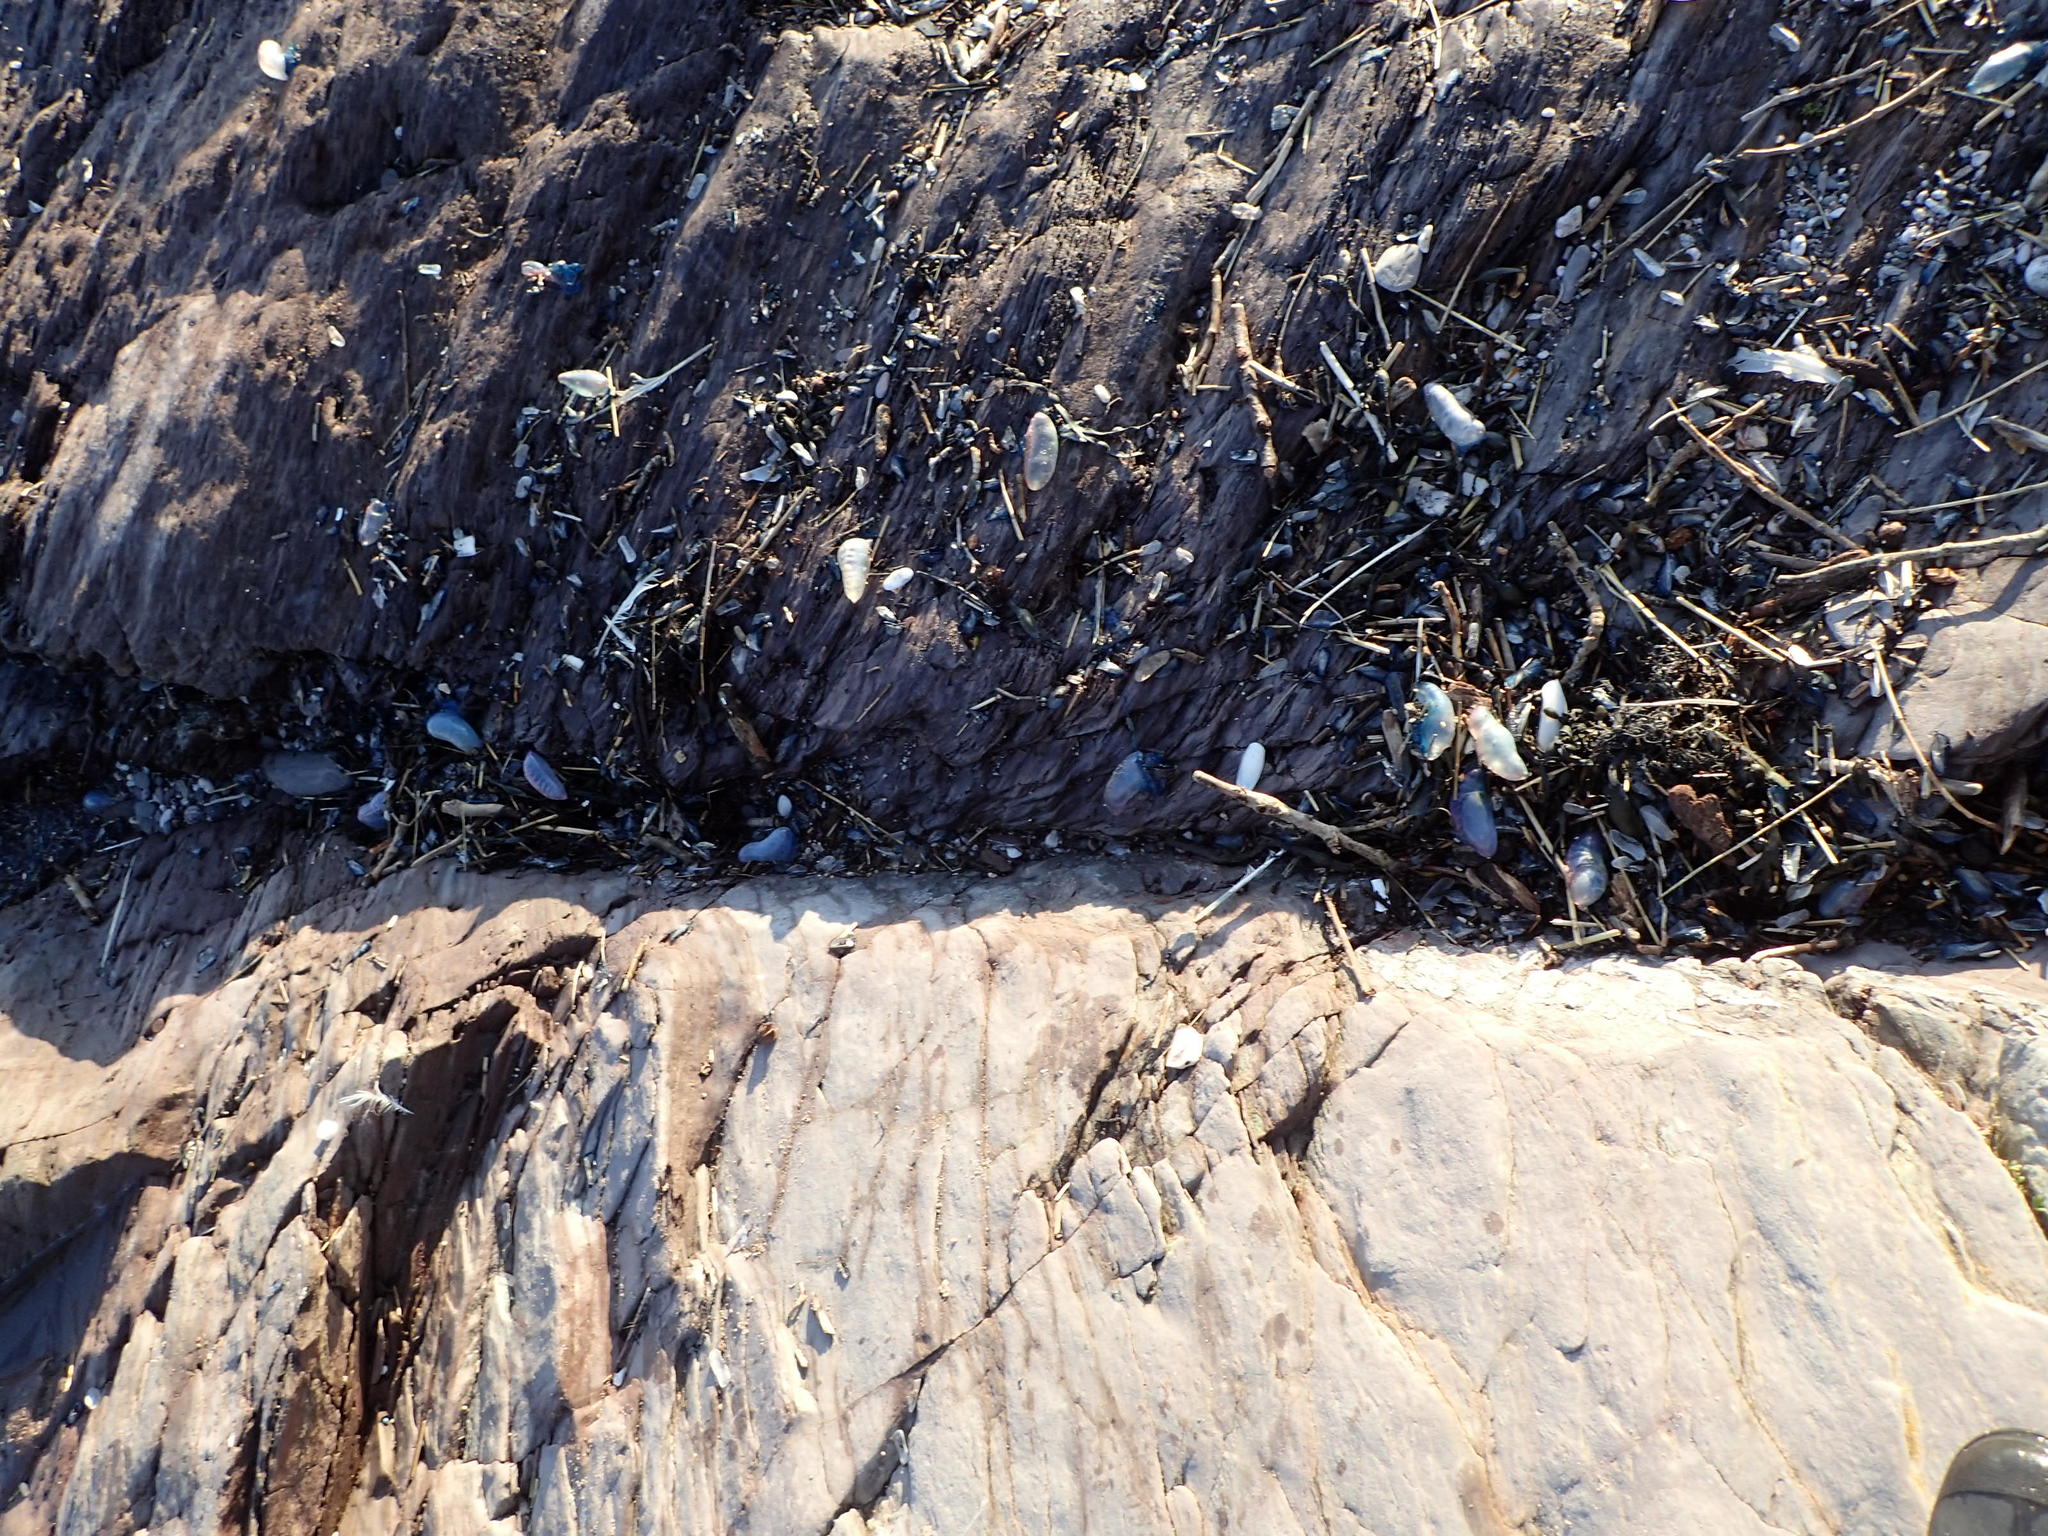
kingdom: Animalia
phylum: Cnidaria
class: Hydrozoa
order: Siphonophorae
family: Physaliidae
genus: Physalia
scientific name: Physalia physalis
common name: Portuguese man-of-war
